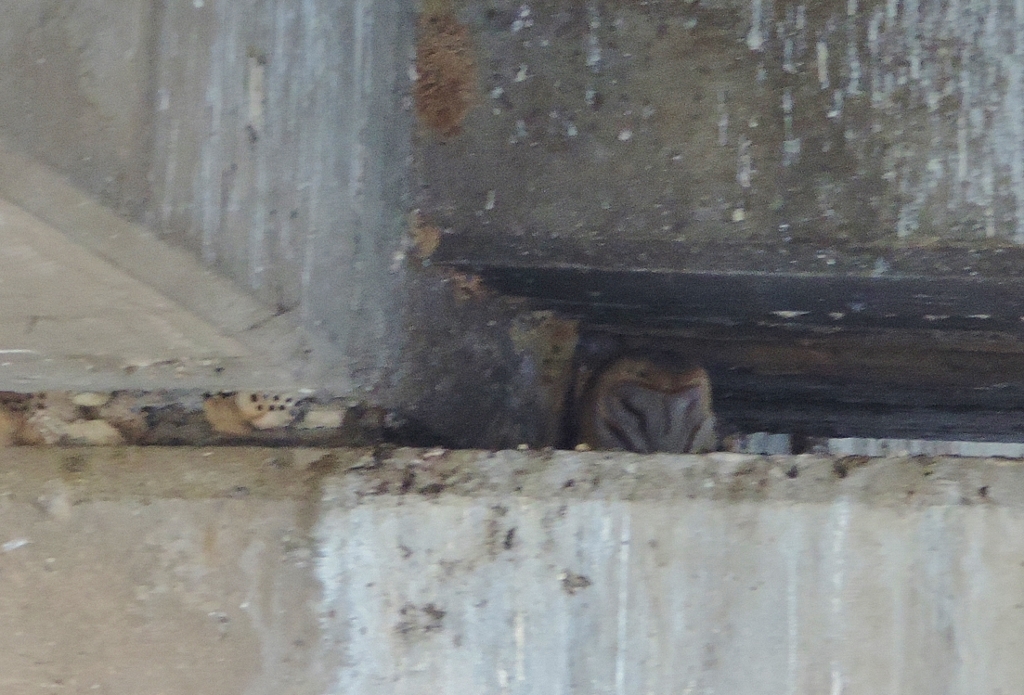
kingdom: Animalia
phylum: Chordata
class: Aves
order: Strigiformes
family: Tytonidae
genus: Tyto
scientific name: Tyto alba
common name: Barn owl
